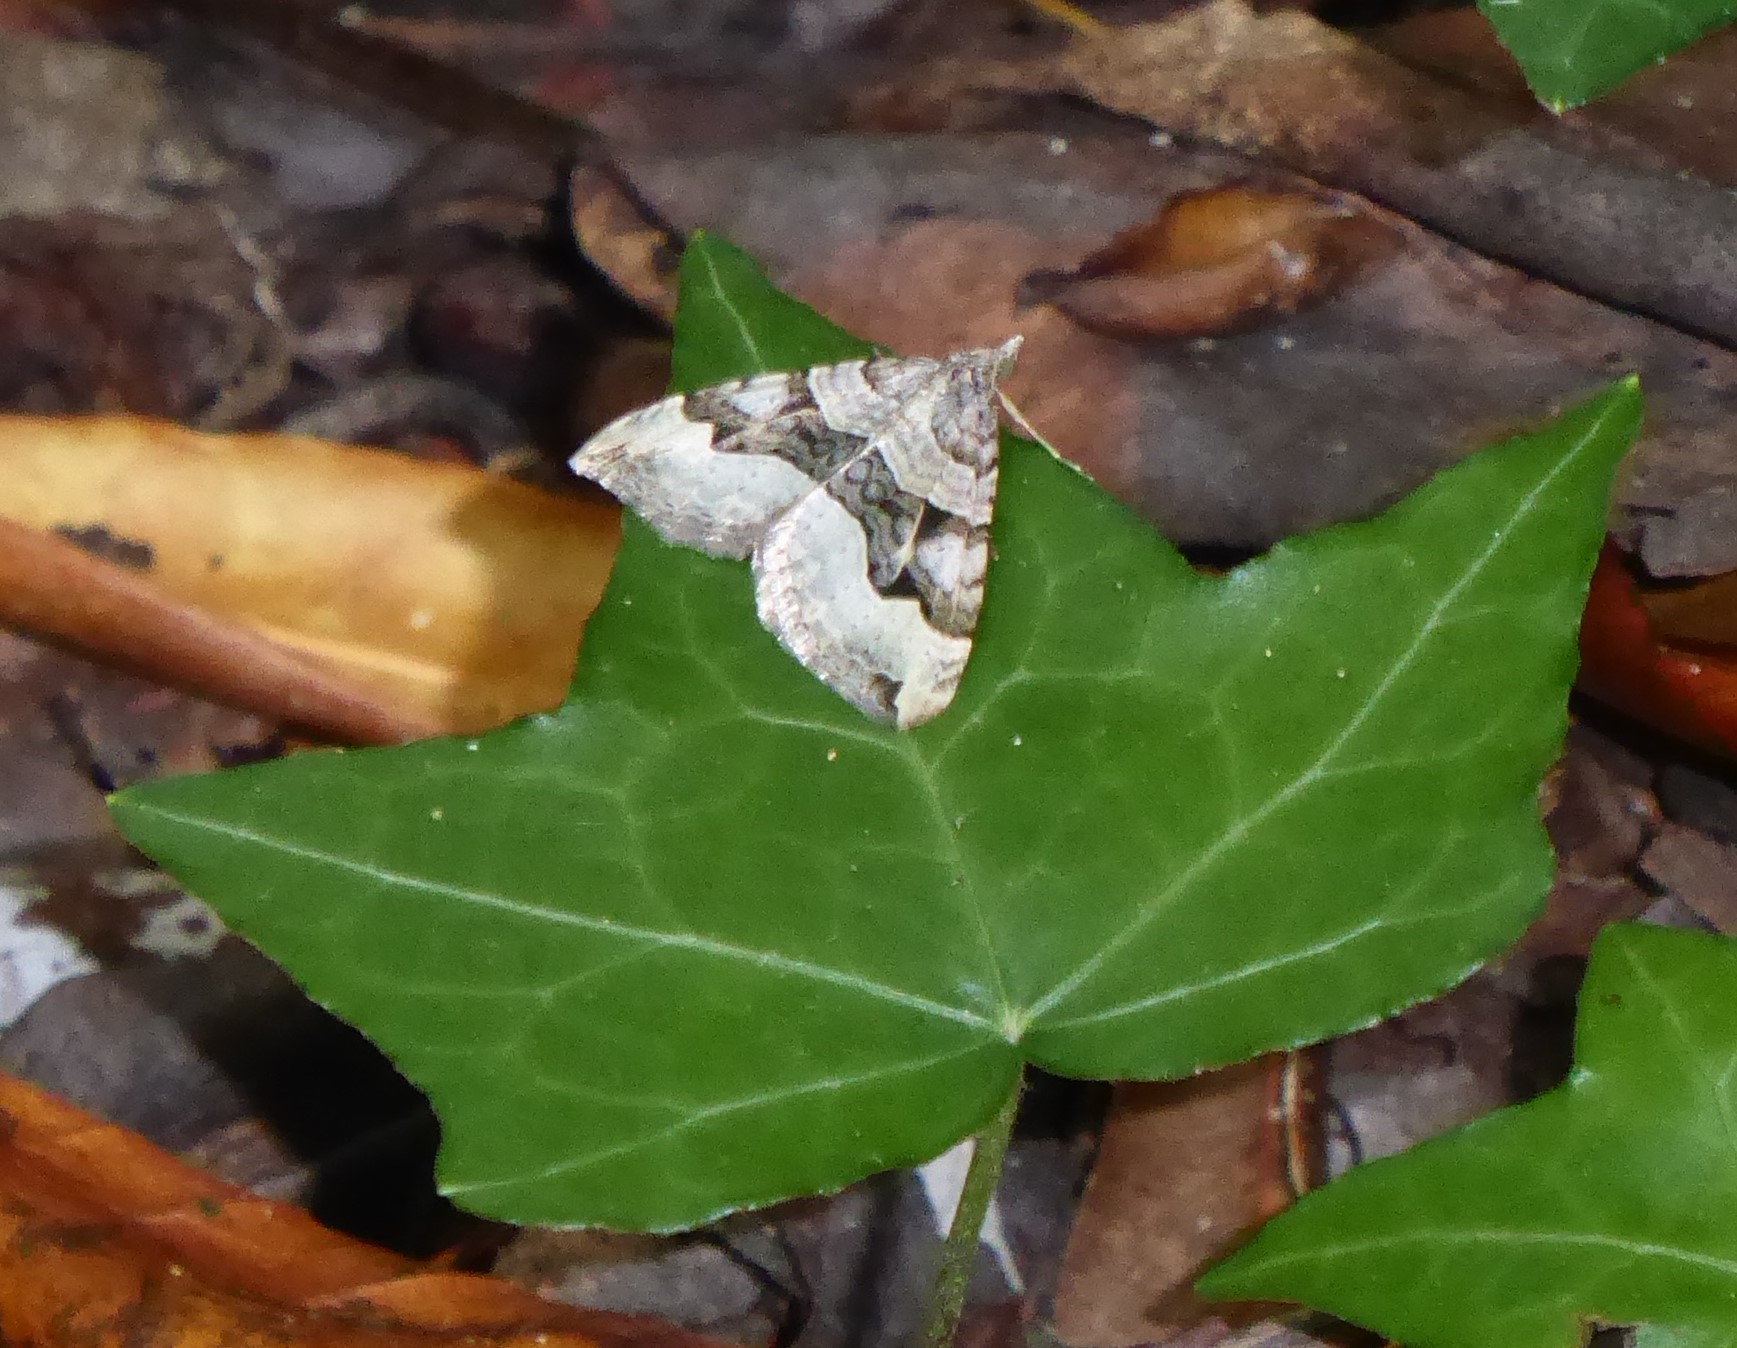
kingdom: Animalia
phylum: Arthropoda
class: Insecta
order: Lepidoptera
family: Geometridae
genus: Xanthorhoe
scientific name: Xanthorhoe semifissata
